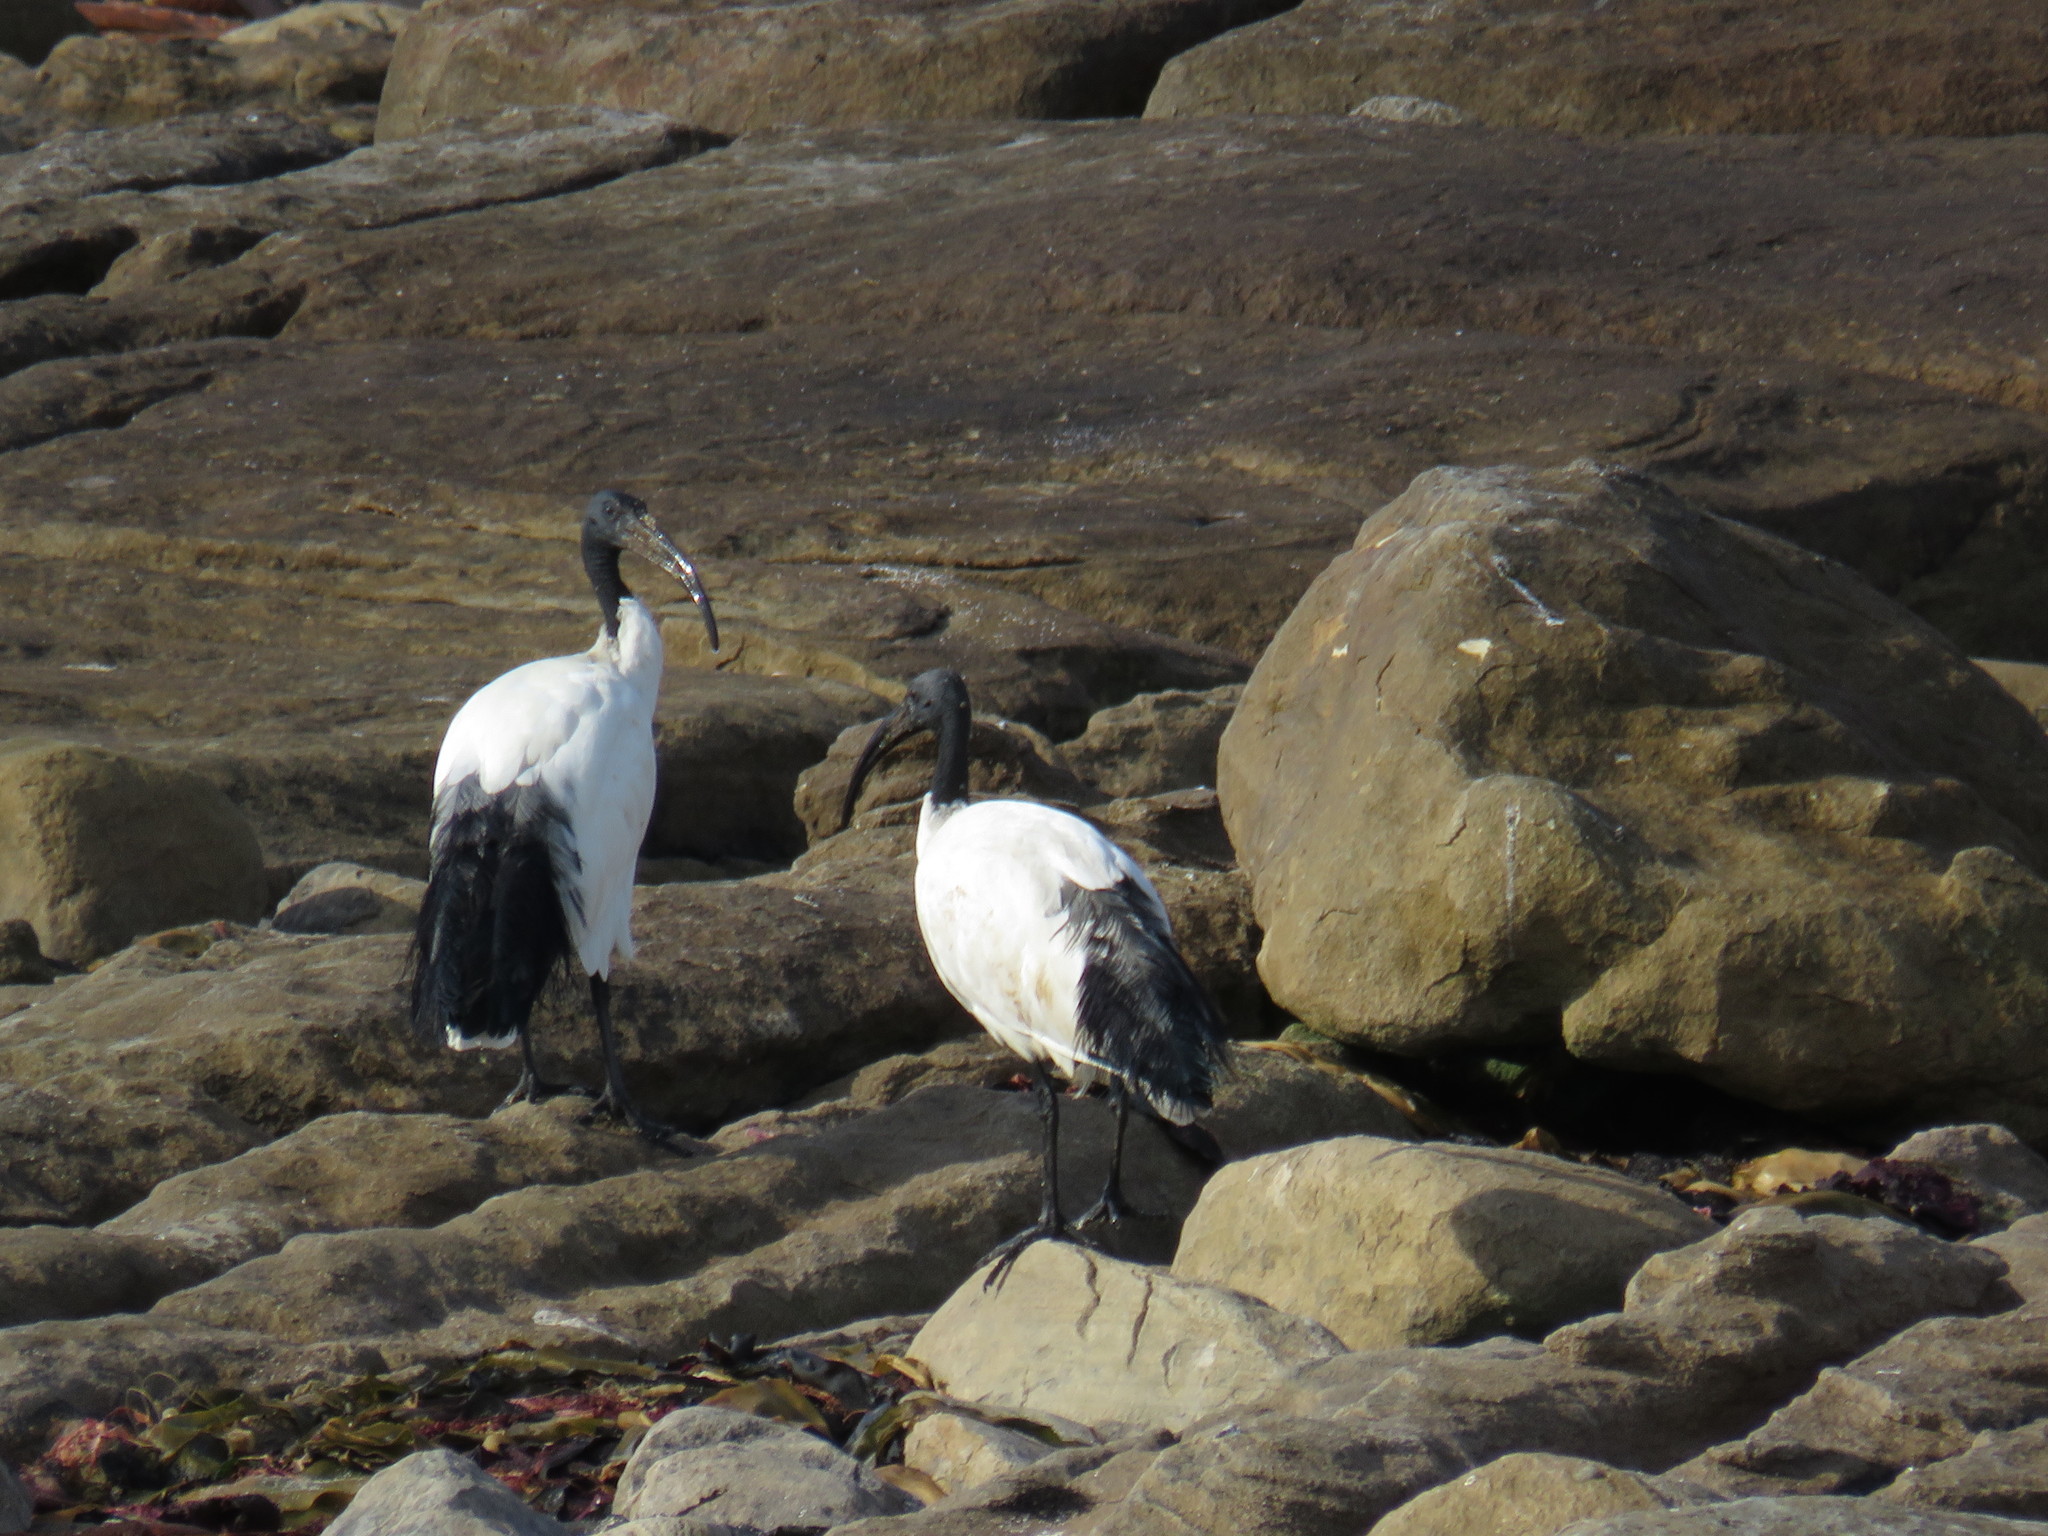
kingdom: Animalia
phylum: Chordata
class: Aves
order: Pelecaniformes
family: Threskiornithidae
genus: Threskiornis
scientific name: Threskiornis aethiopicus
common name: Sacred ibis
